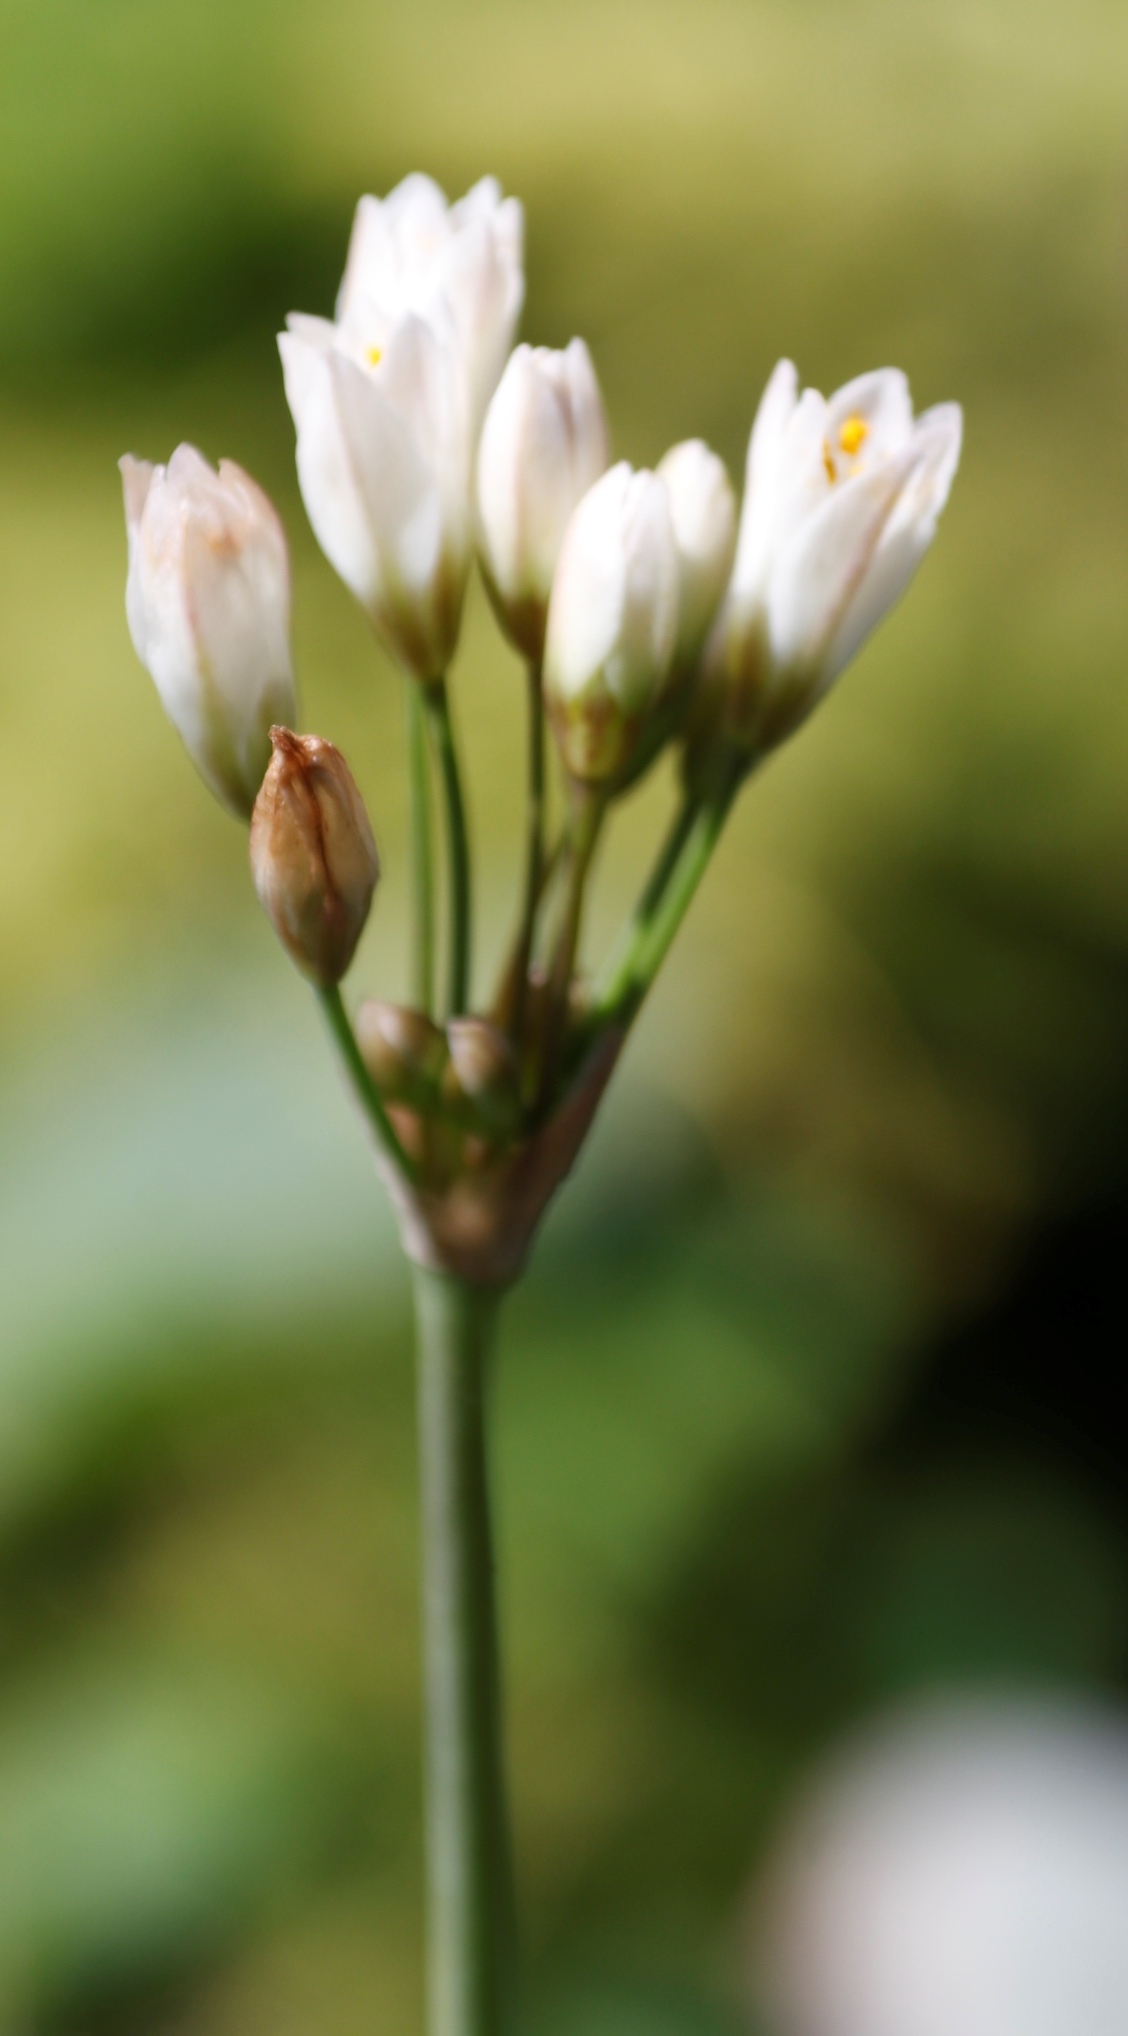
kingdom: Plantae
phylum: Tracheophyta
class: Liliopsida
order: Asparagales
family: Amaryllidaceae
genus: Nothoscordum
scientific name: Nothoscordum gracile
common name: Slender false garlic
